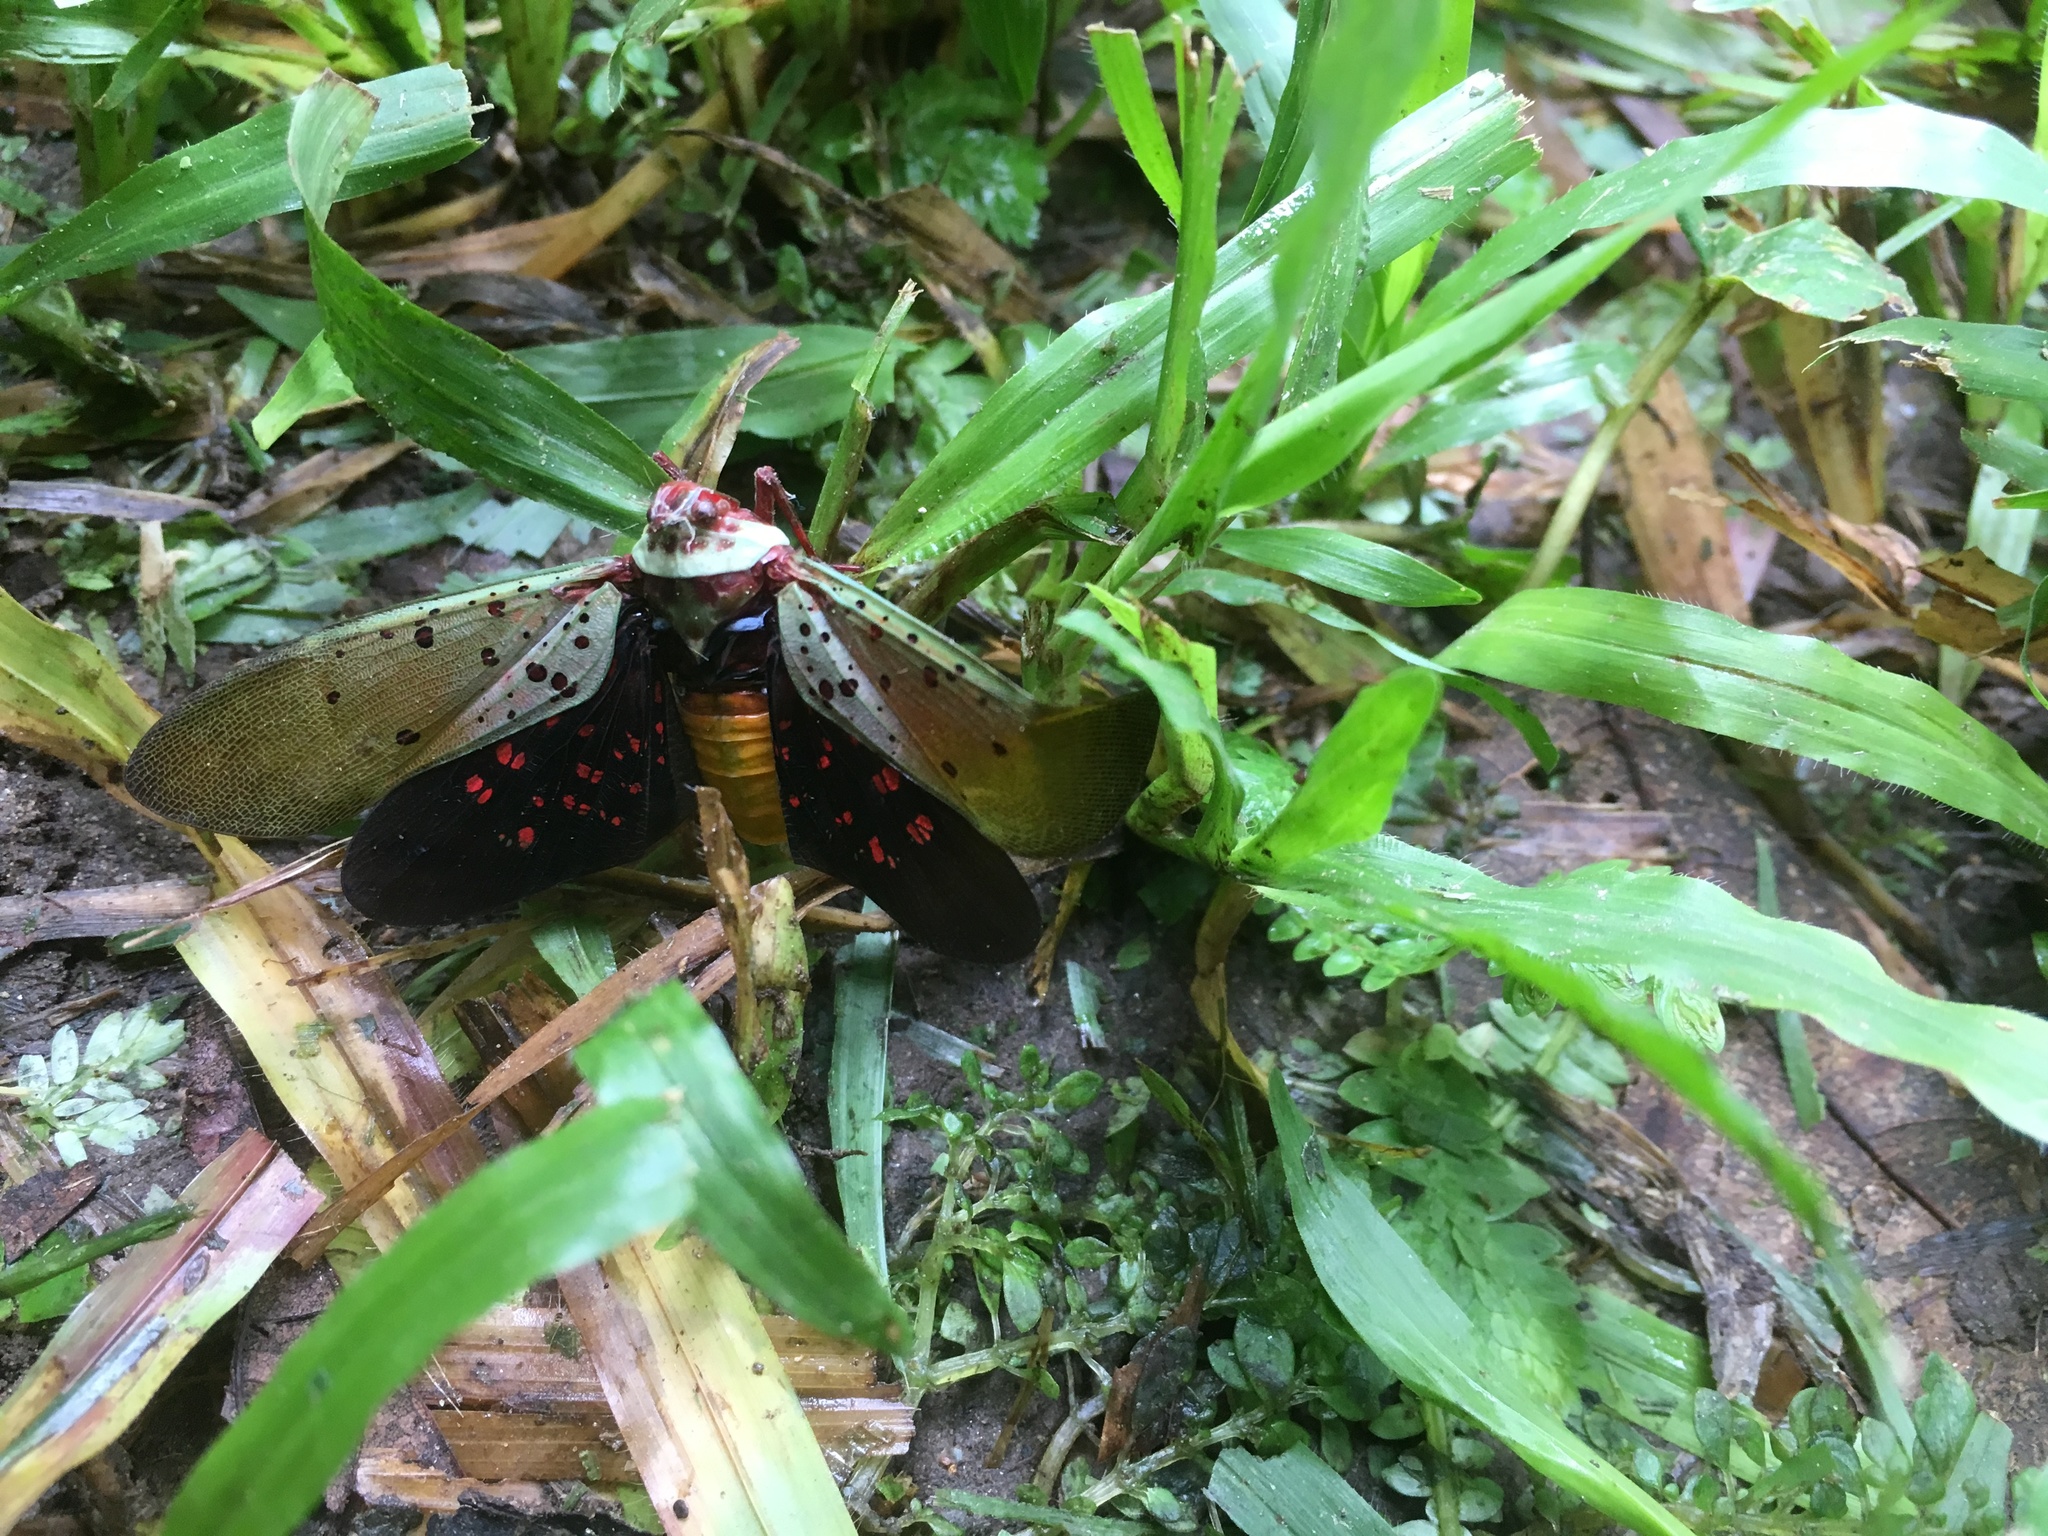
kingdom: Animalia
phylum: Arthropoda
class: Insecta
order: Hemiptera
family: Fulgoridae
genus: Copidocephala
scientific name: Copidocephala guttata
